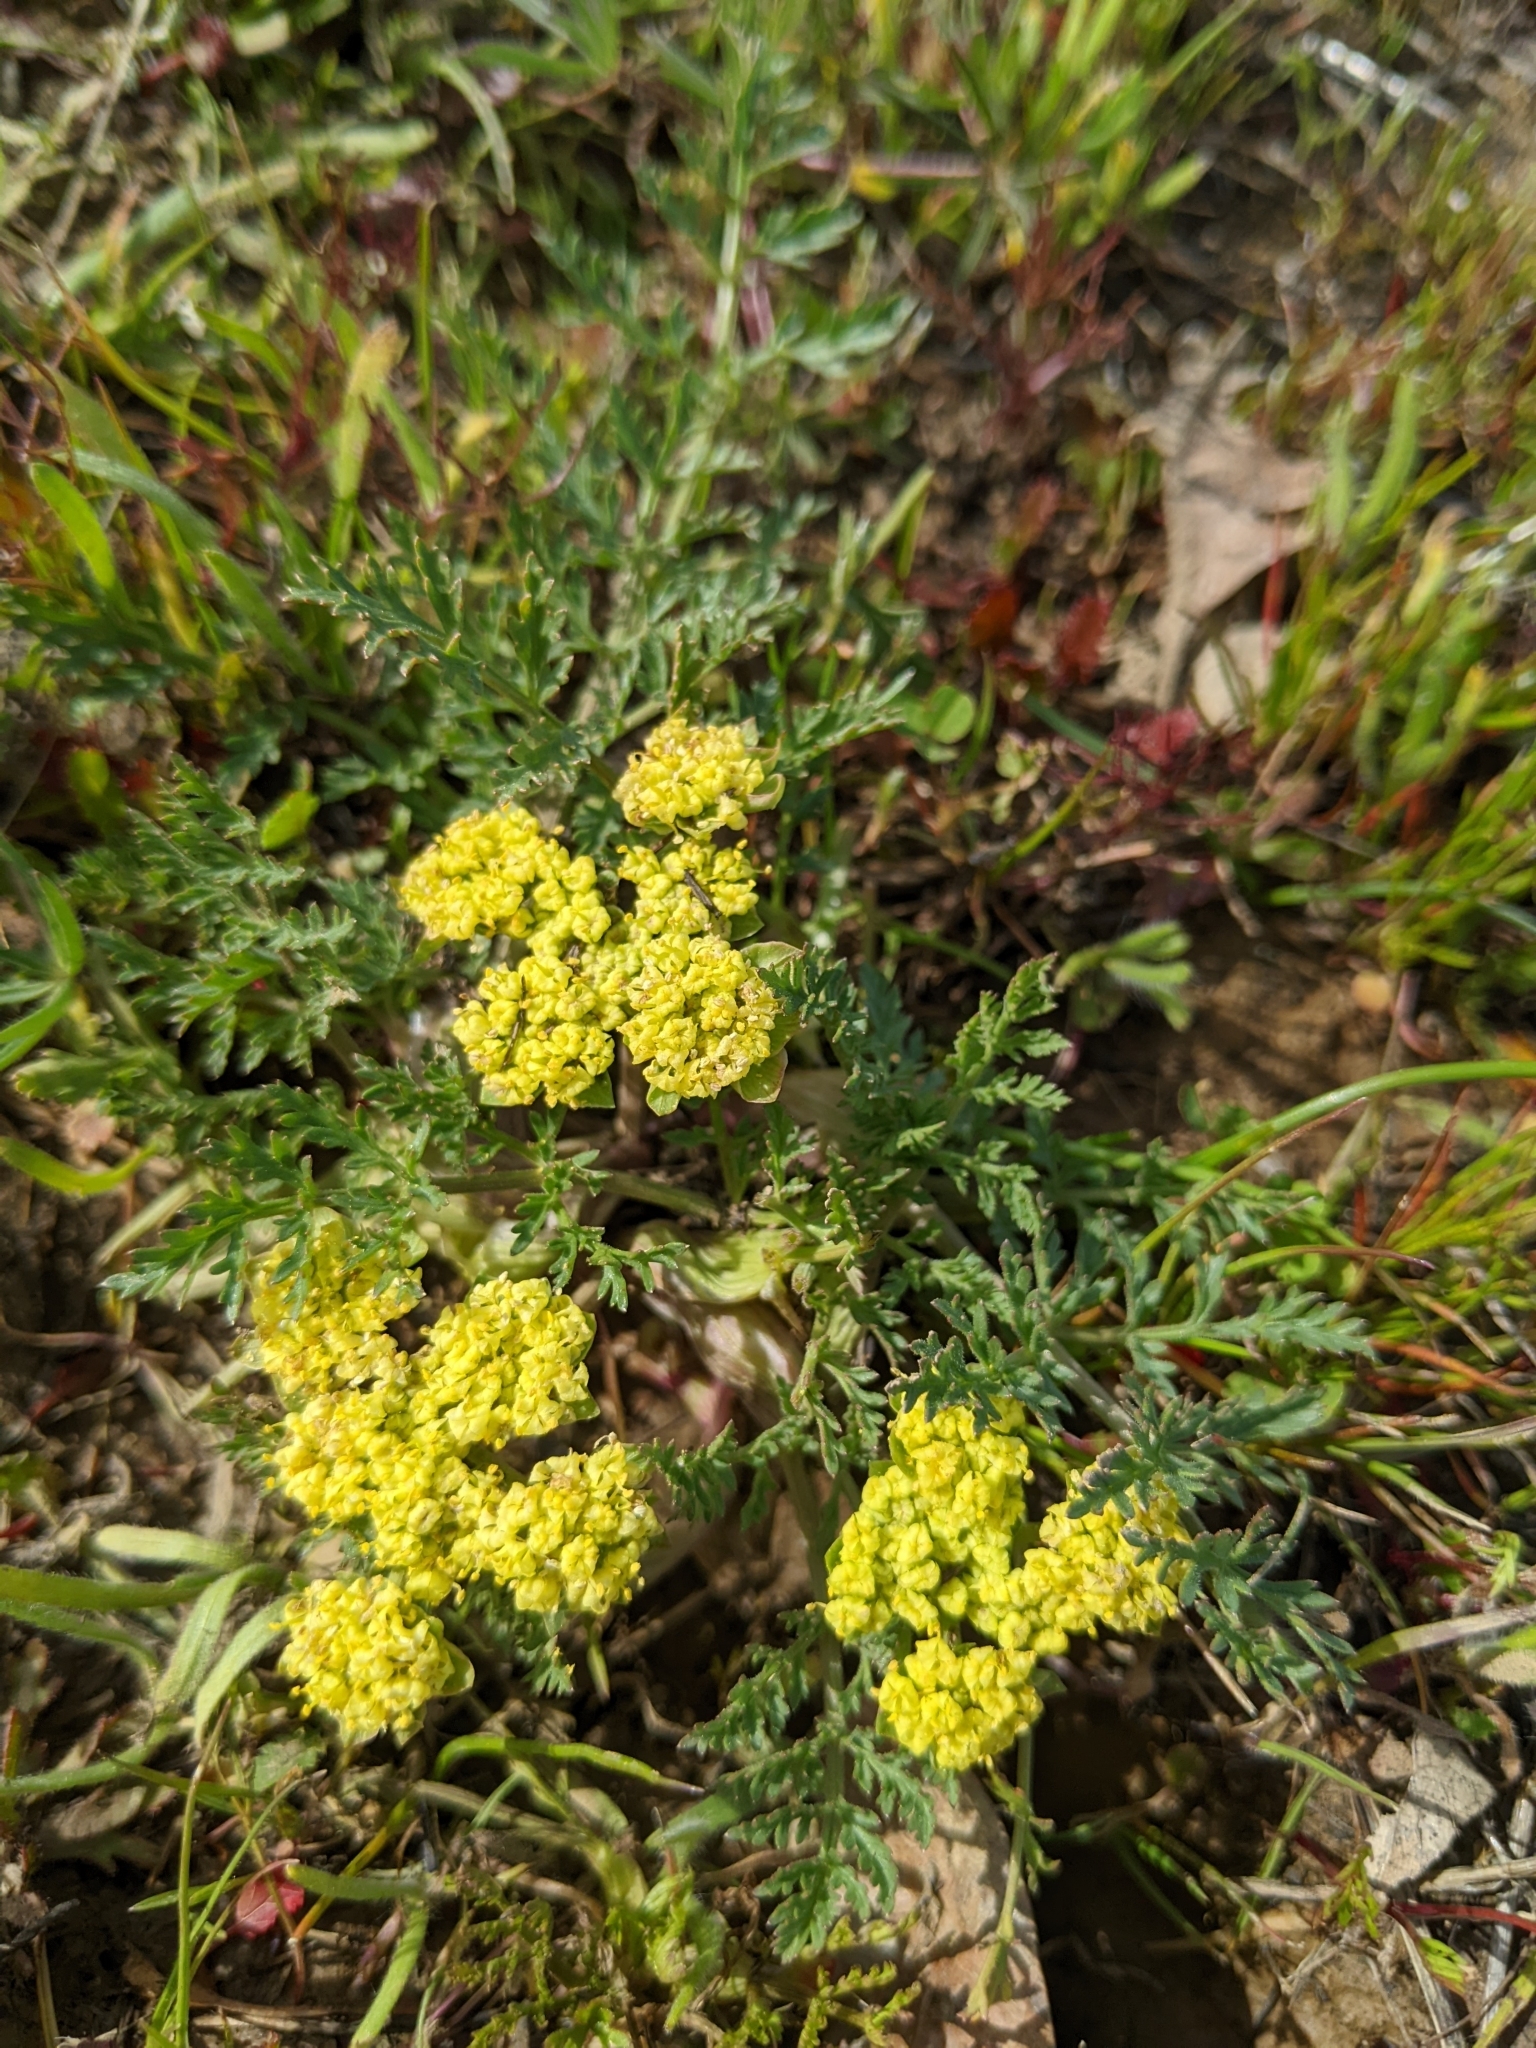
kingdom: Plantae
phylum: Tracheophyta
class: Magnoliopsida
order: Apiales
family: Apiaceae
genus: Lomatium
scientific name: Lomatium utriculatum
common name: Fine-leaf desert-parsley
